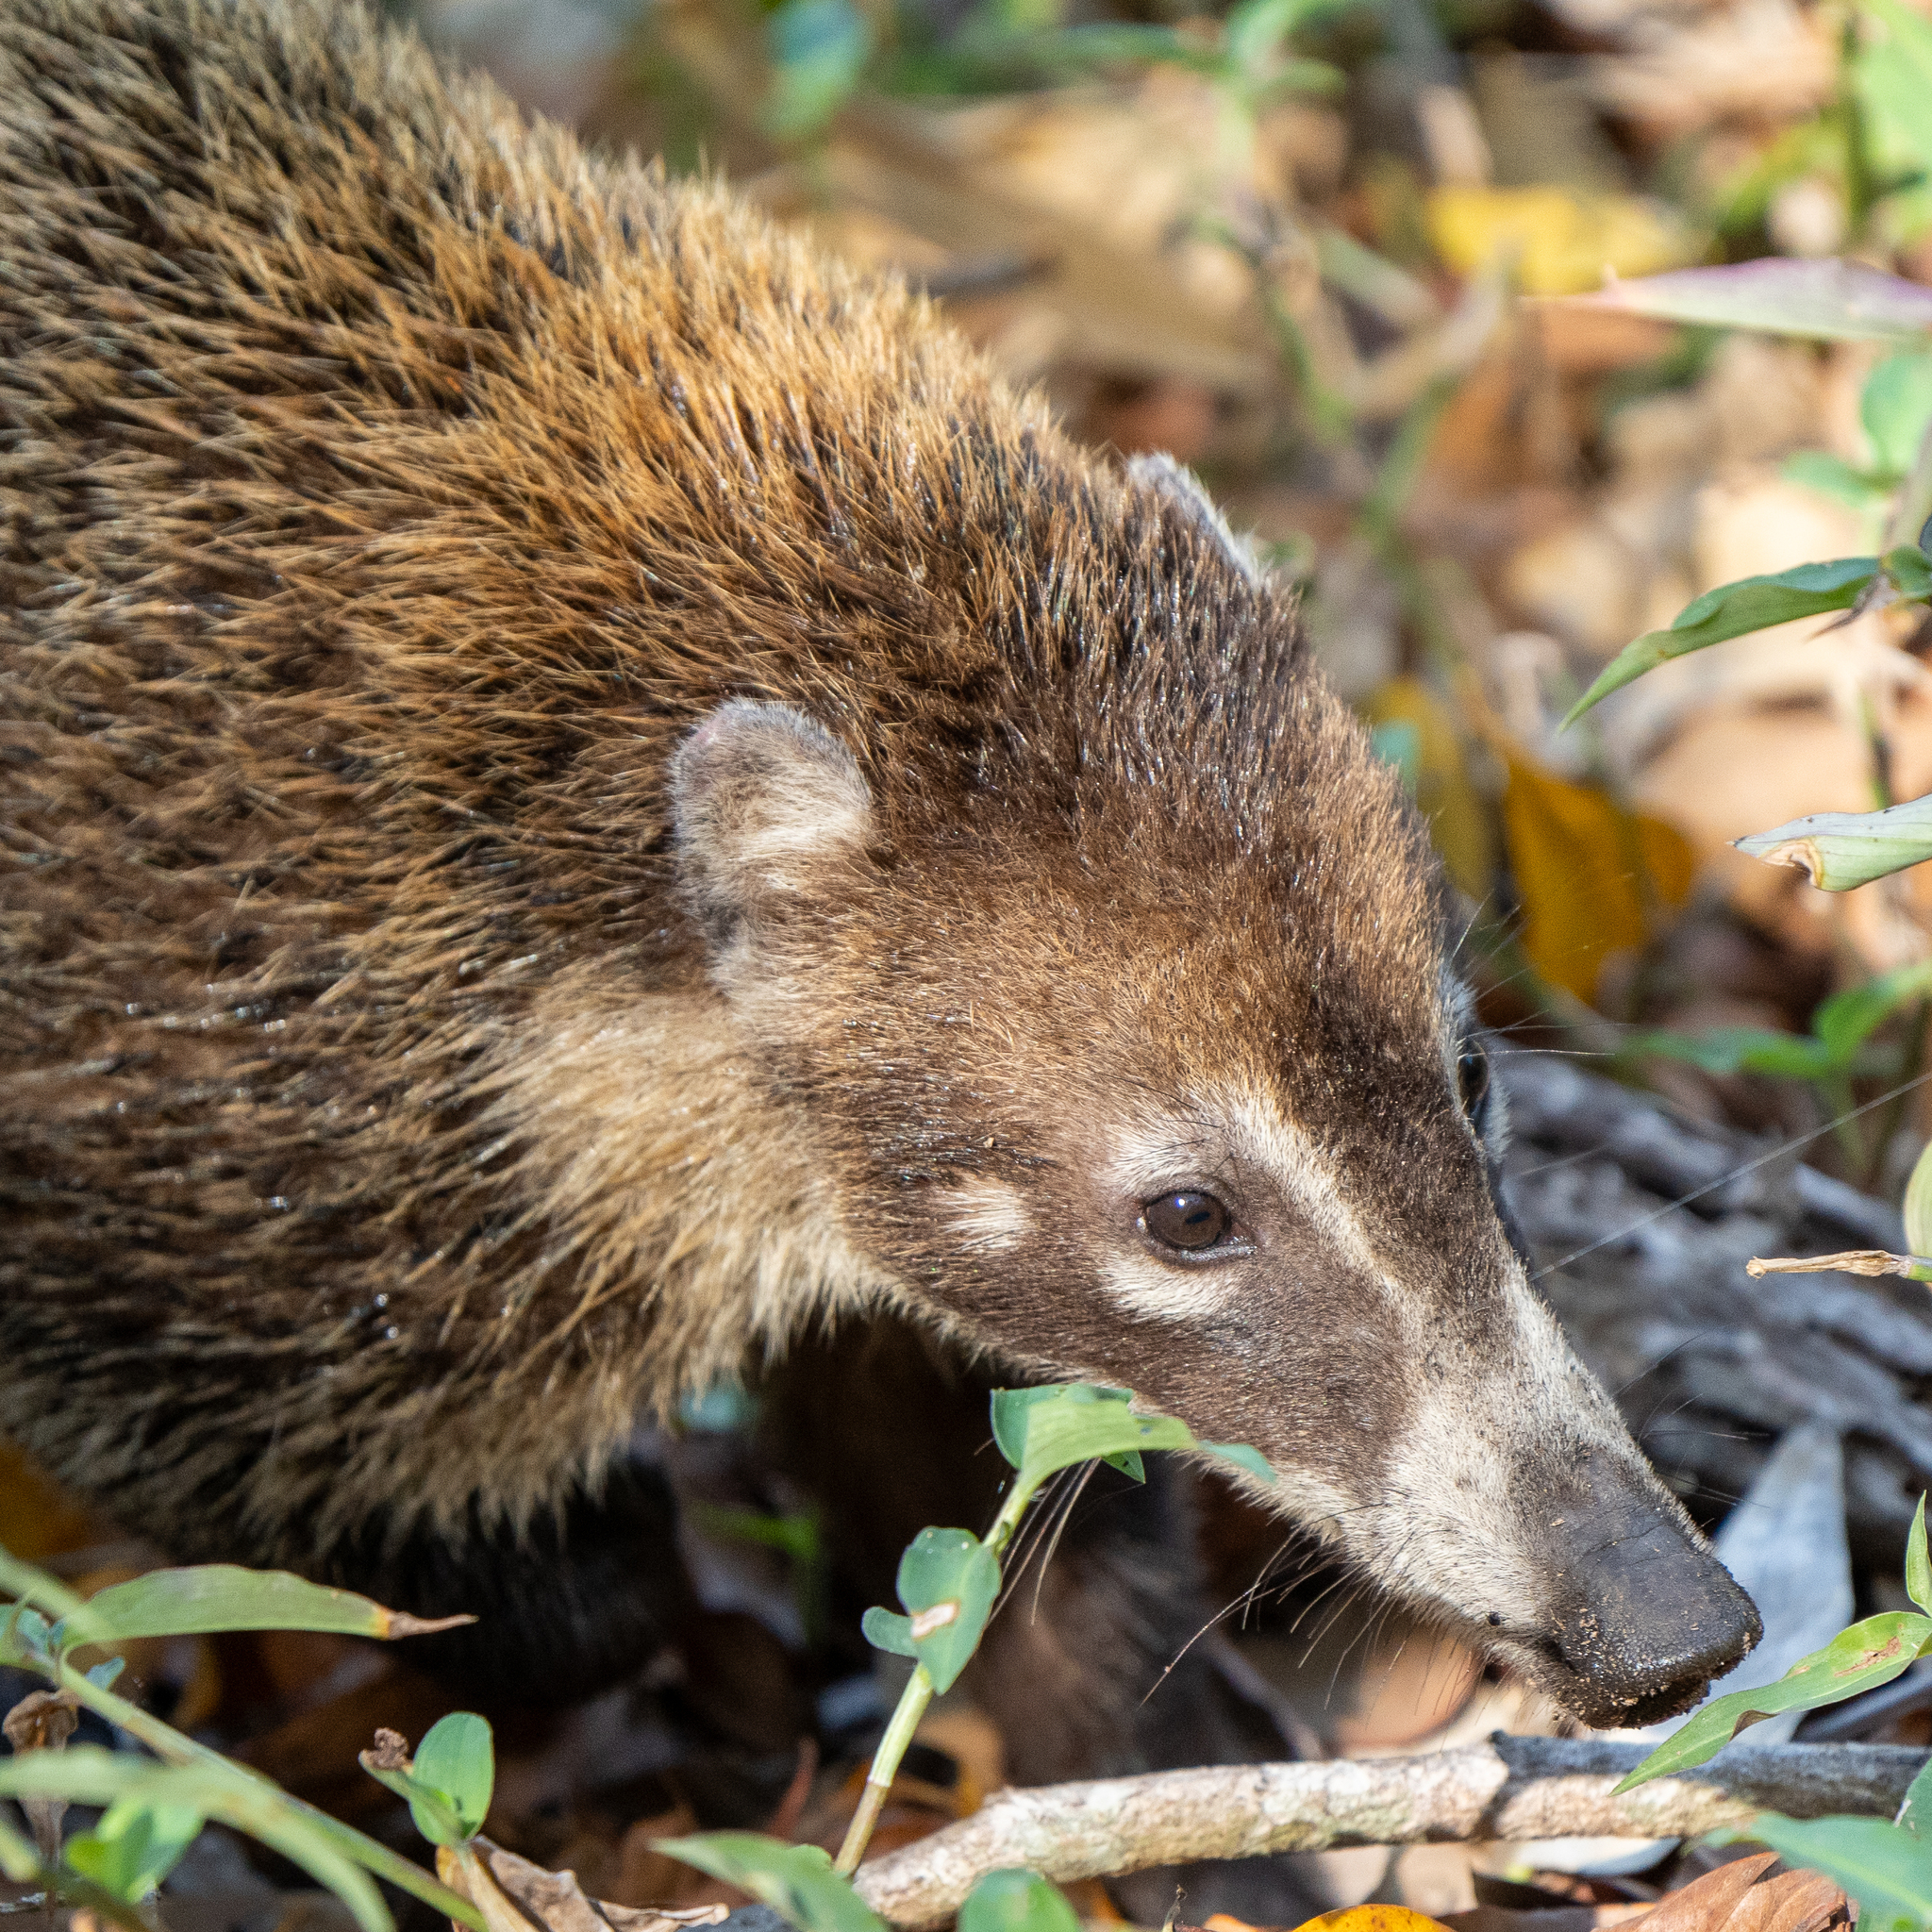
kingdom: Animalia
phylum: Chordata
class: Mammalia
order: Carnivora
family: Procyonidae
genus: Nasua
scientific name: Nasua narica
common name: White-nosed coati
